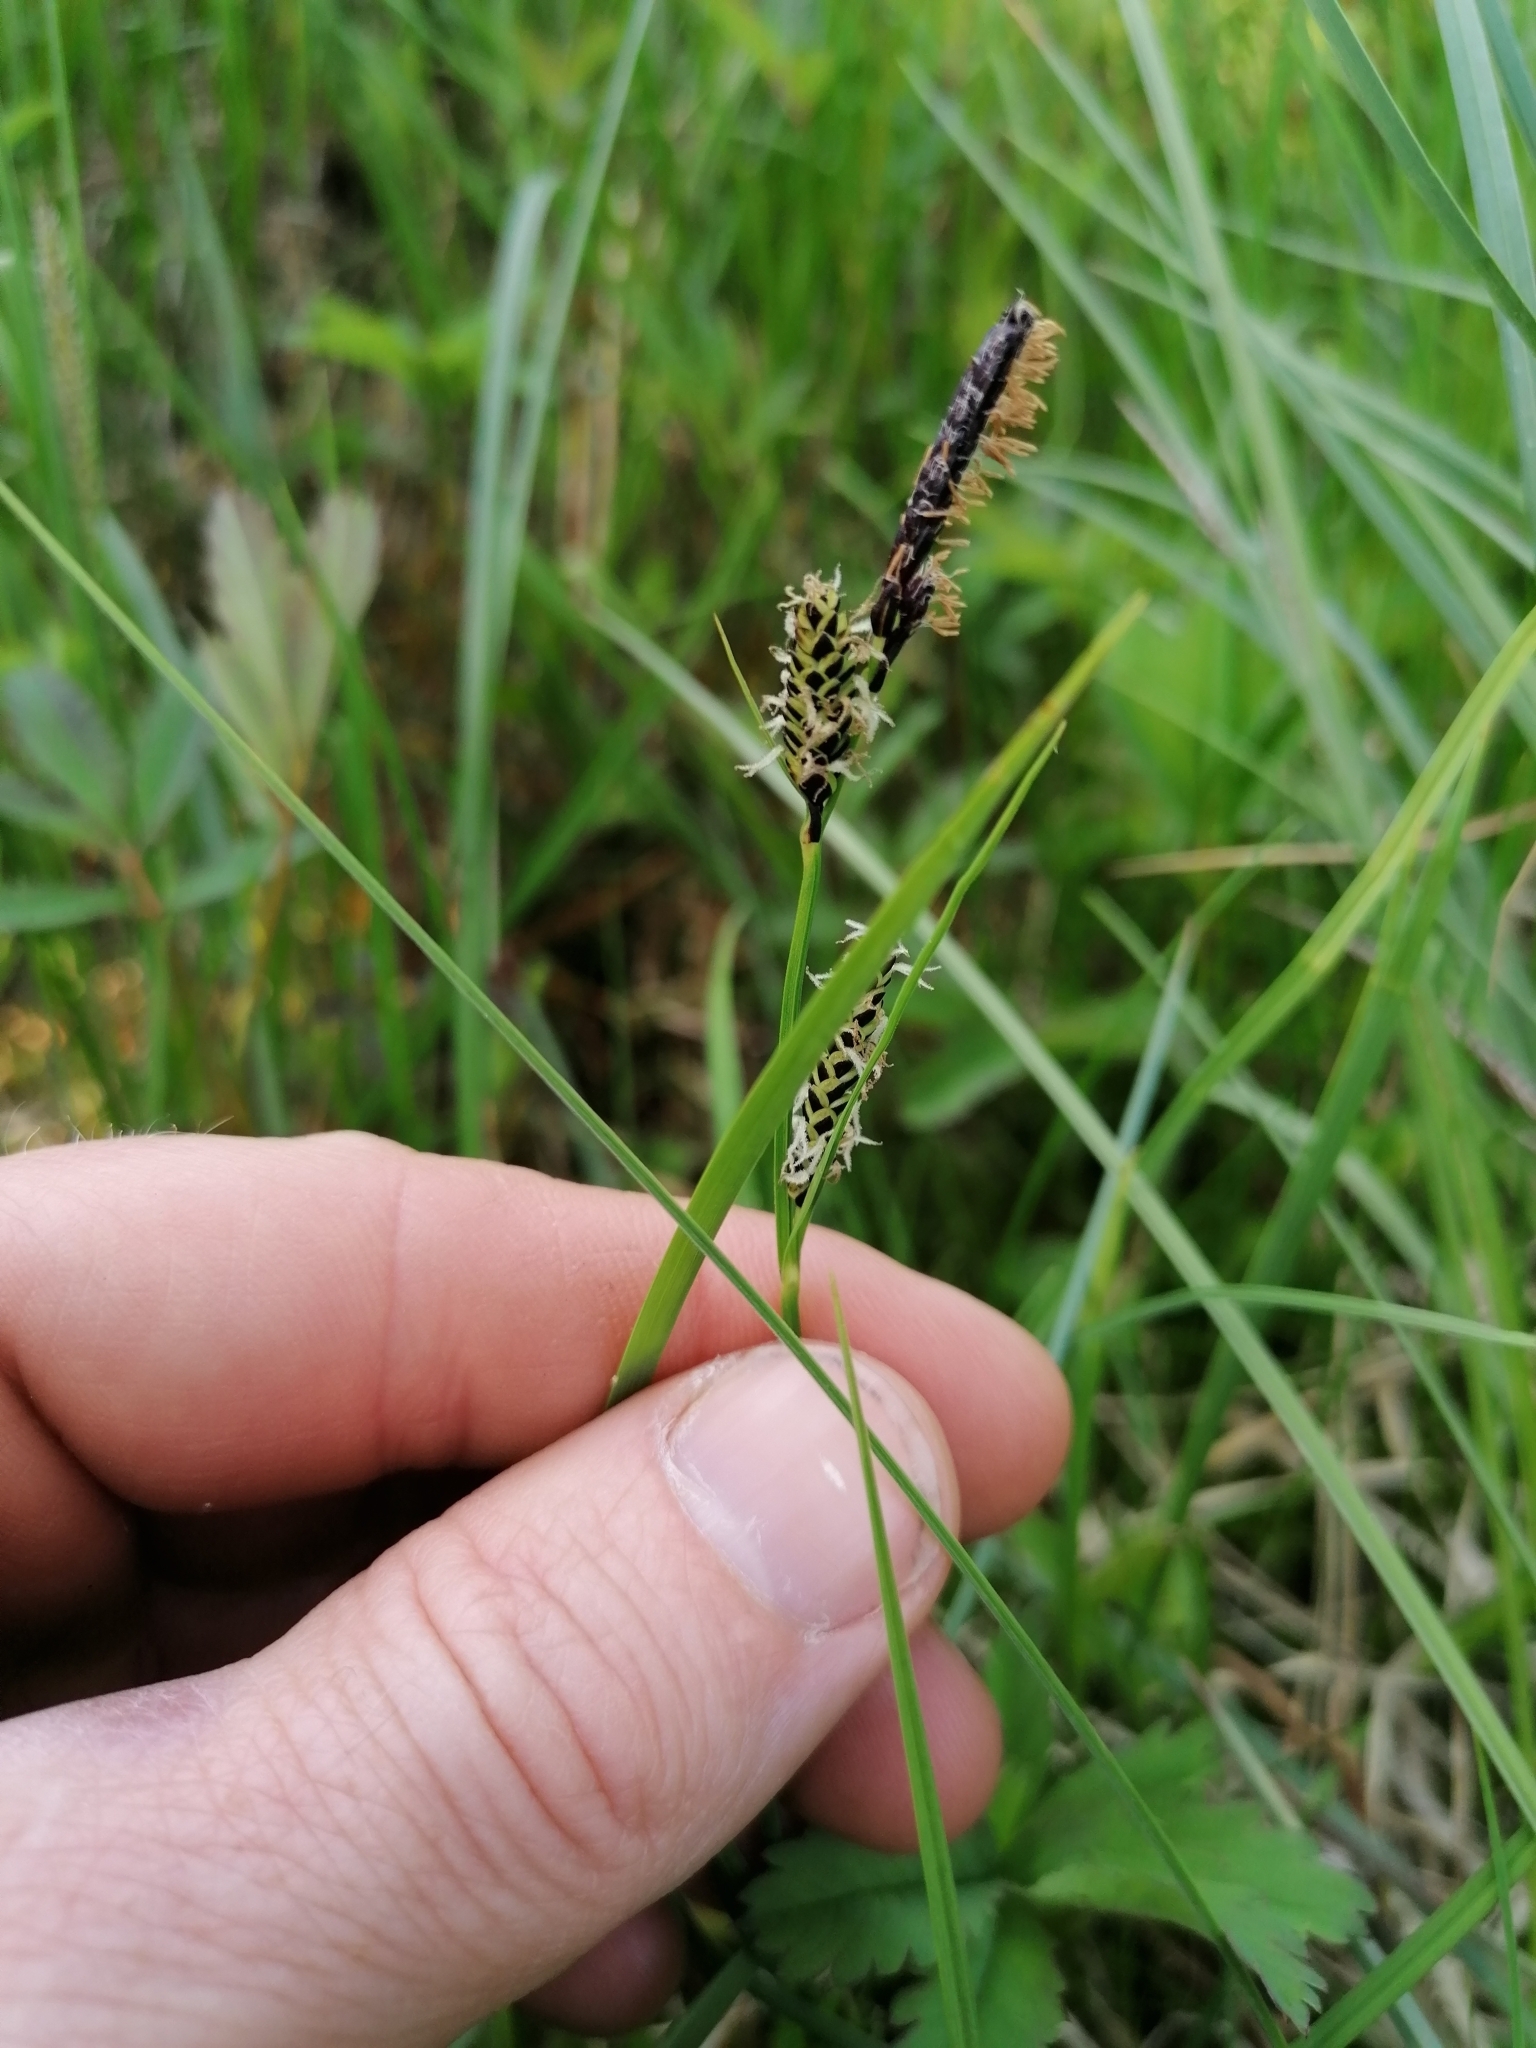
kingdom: Plantae
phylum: Tracheophyta
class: Liliopsida
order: Poales
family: Cyperaceae
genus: Carex
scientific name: Carex nigra
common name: Common sedge
